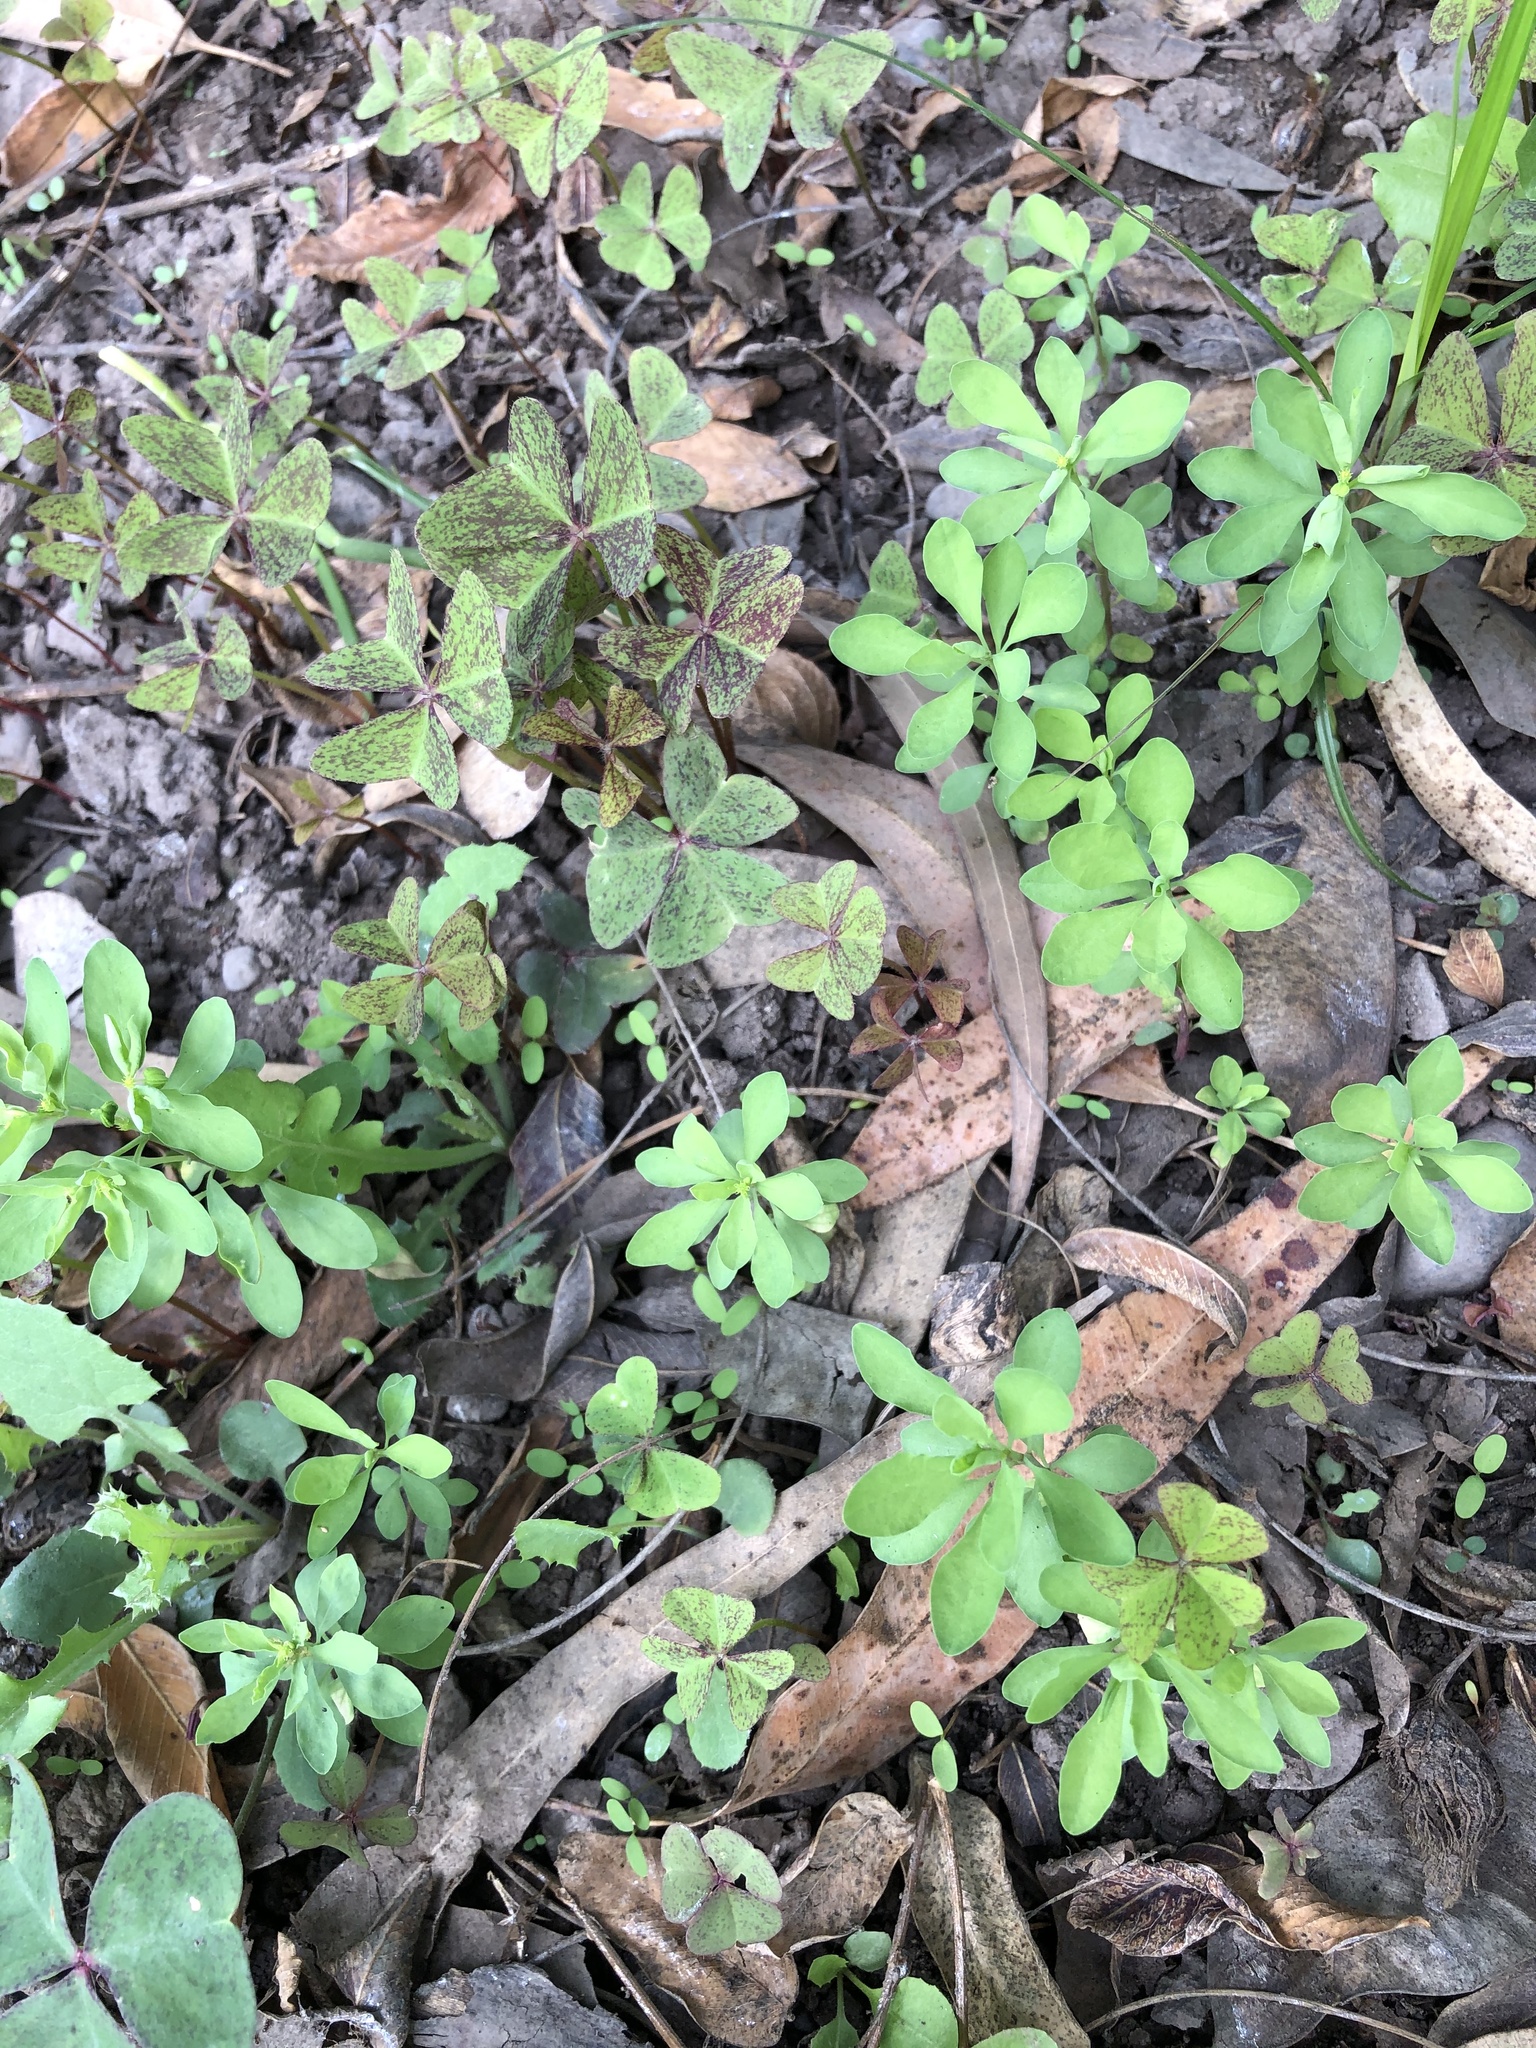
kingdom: Plantae
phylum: Tracheophyta
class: Magnoliopsida
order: Malpighiales
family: Euphorbiaceae
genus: Euphorbia
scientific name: Euphorbia peplus
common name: Petty spurge
